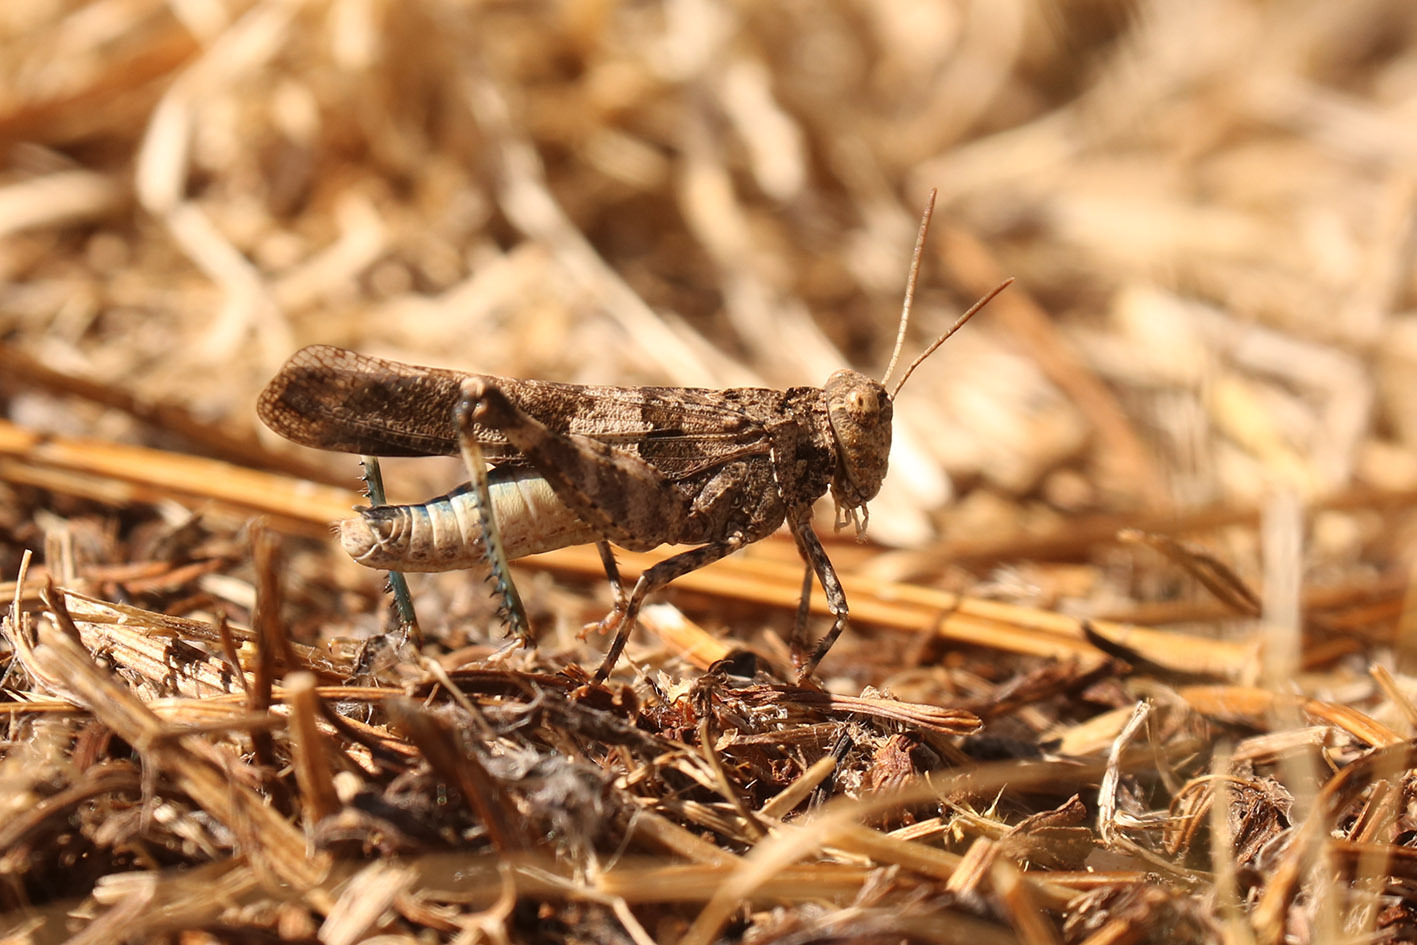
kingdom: Animalia
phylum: Arthropoda
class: Insecta
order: Orthoptera
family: Acrididae
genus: Oedipoda
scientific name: Oedipoda caerulescens
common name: Blue-winged grasshopper
